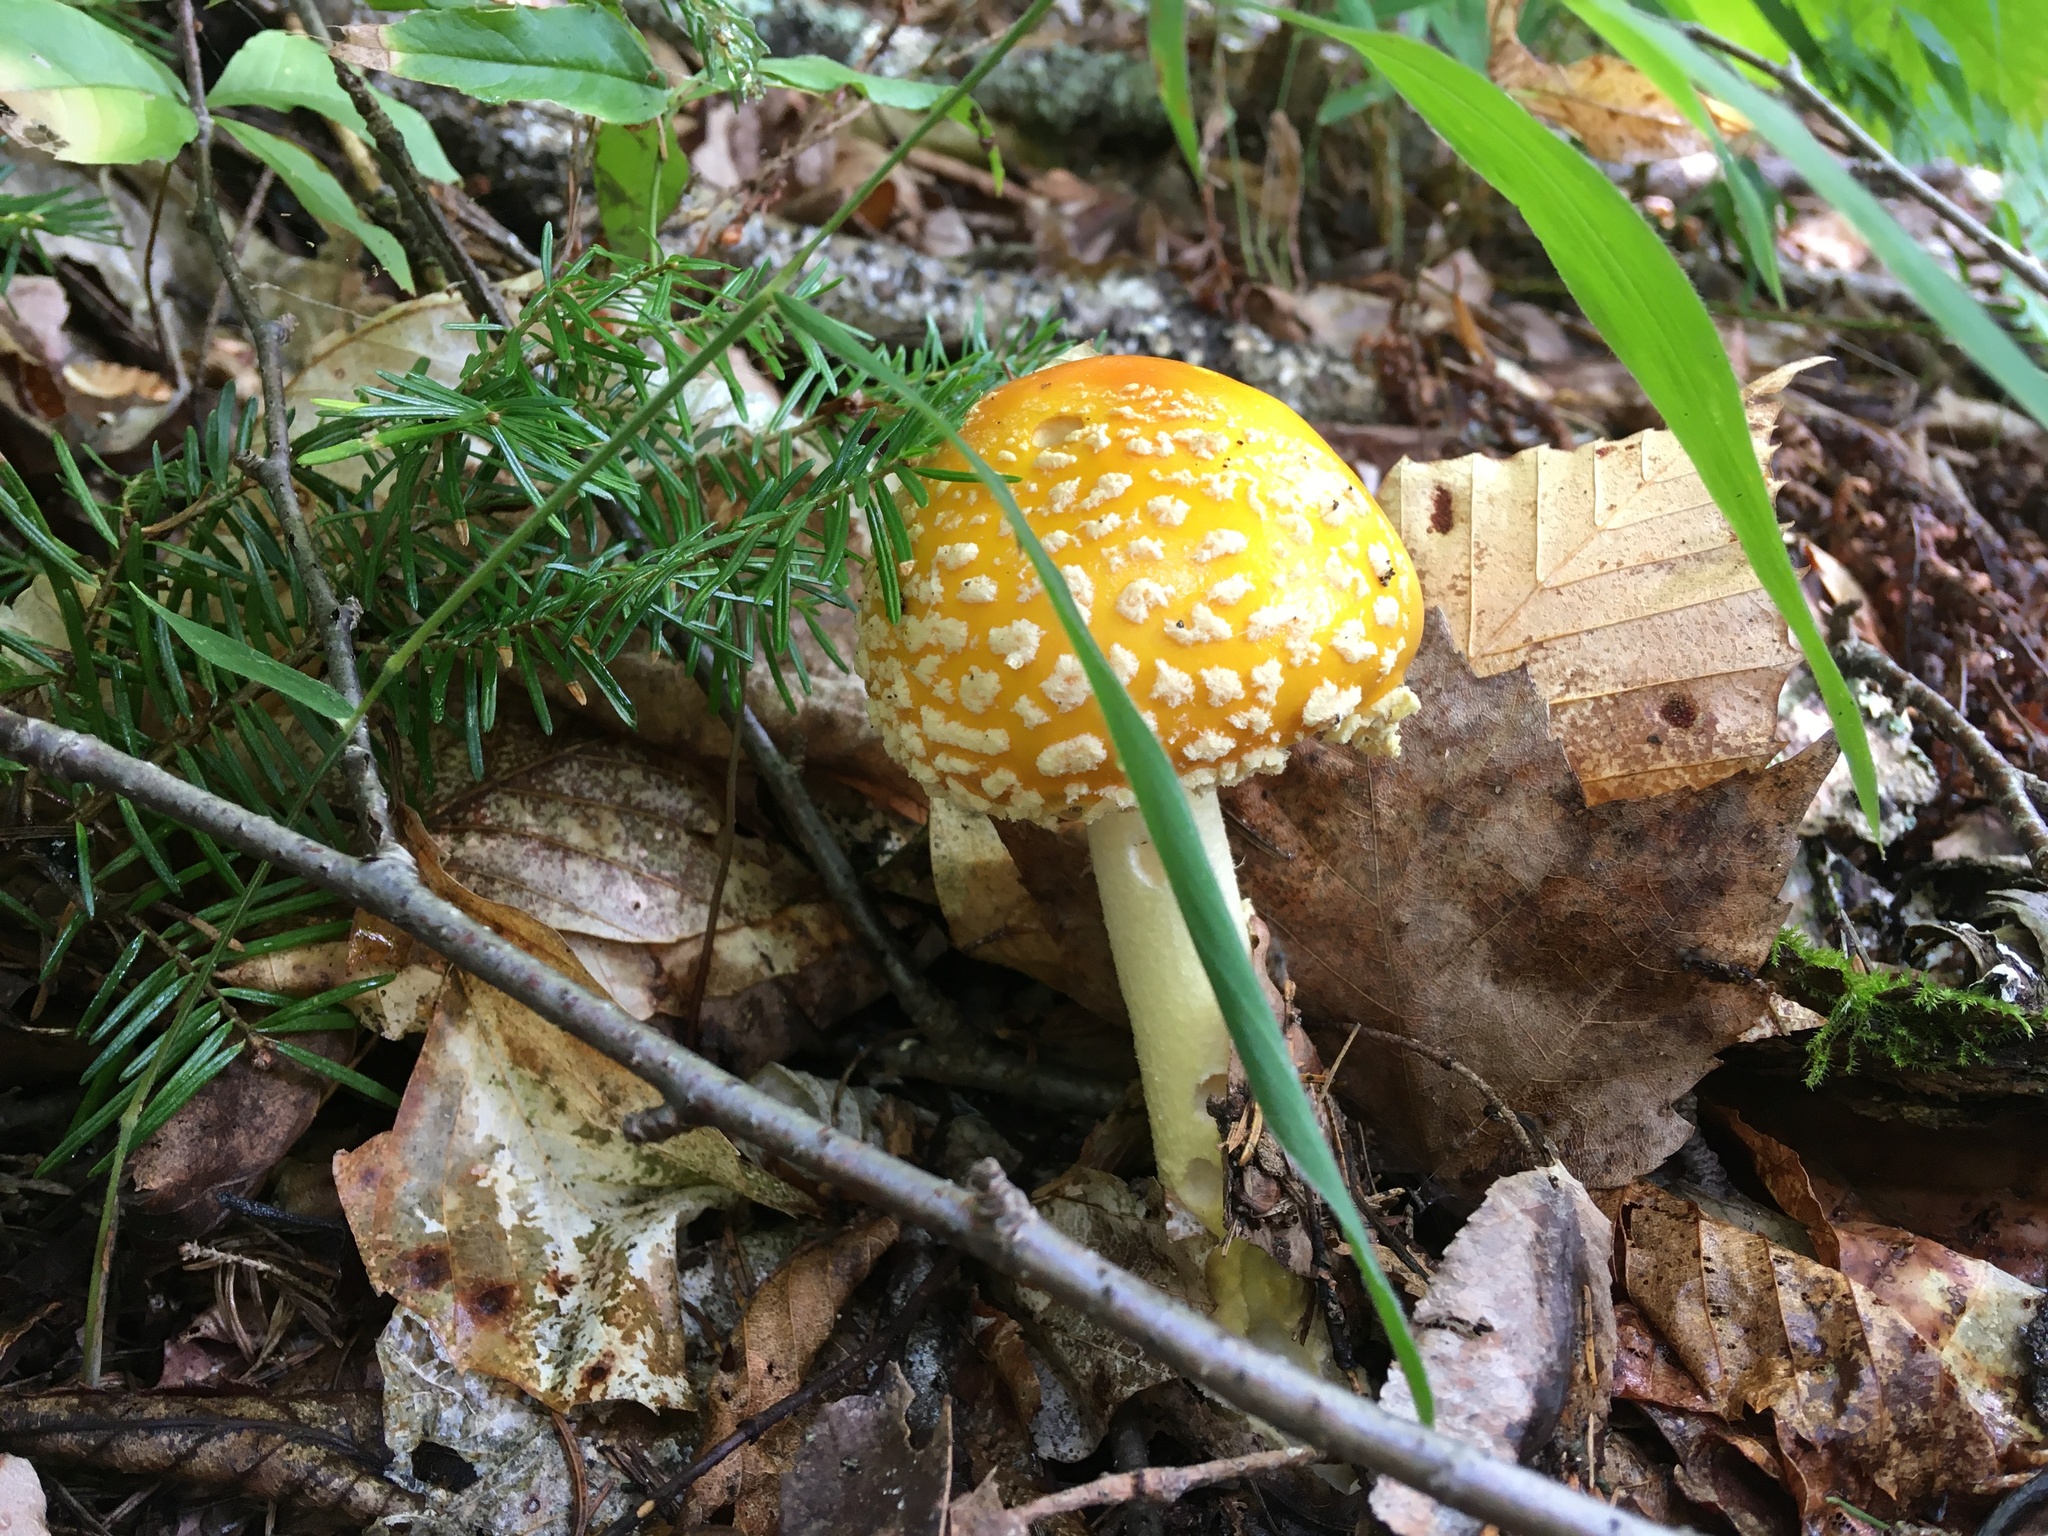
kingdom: Fungi
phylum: Basidiomycota
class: Agaricomycetes
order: Agaricales
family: Amanitaceae
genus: Amanita
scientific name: Amanita muscaria
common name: Fly agaric
